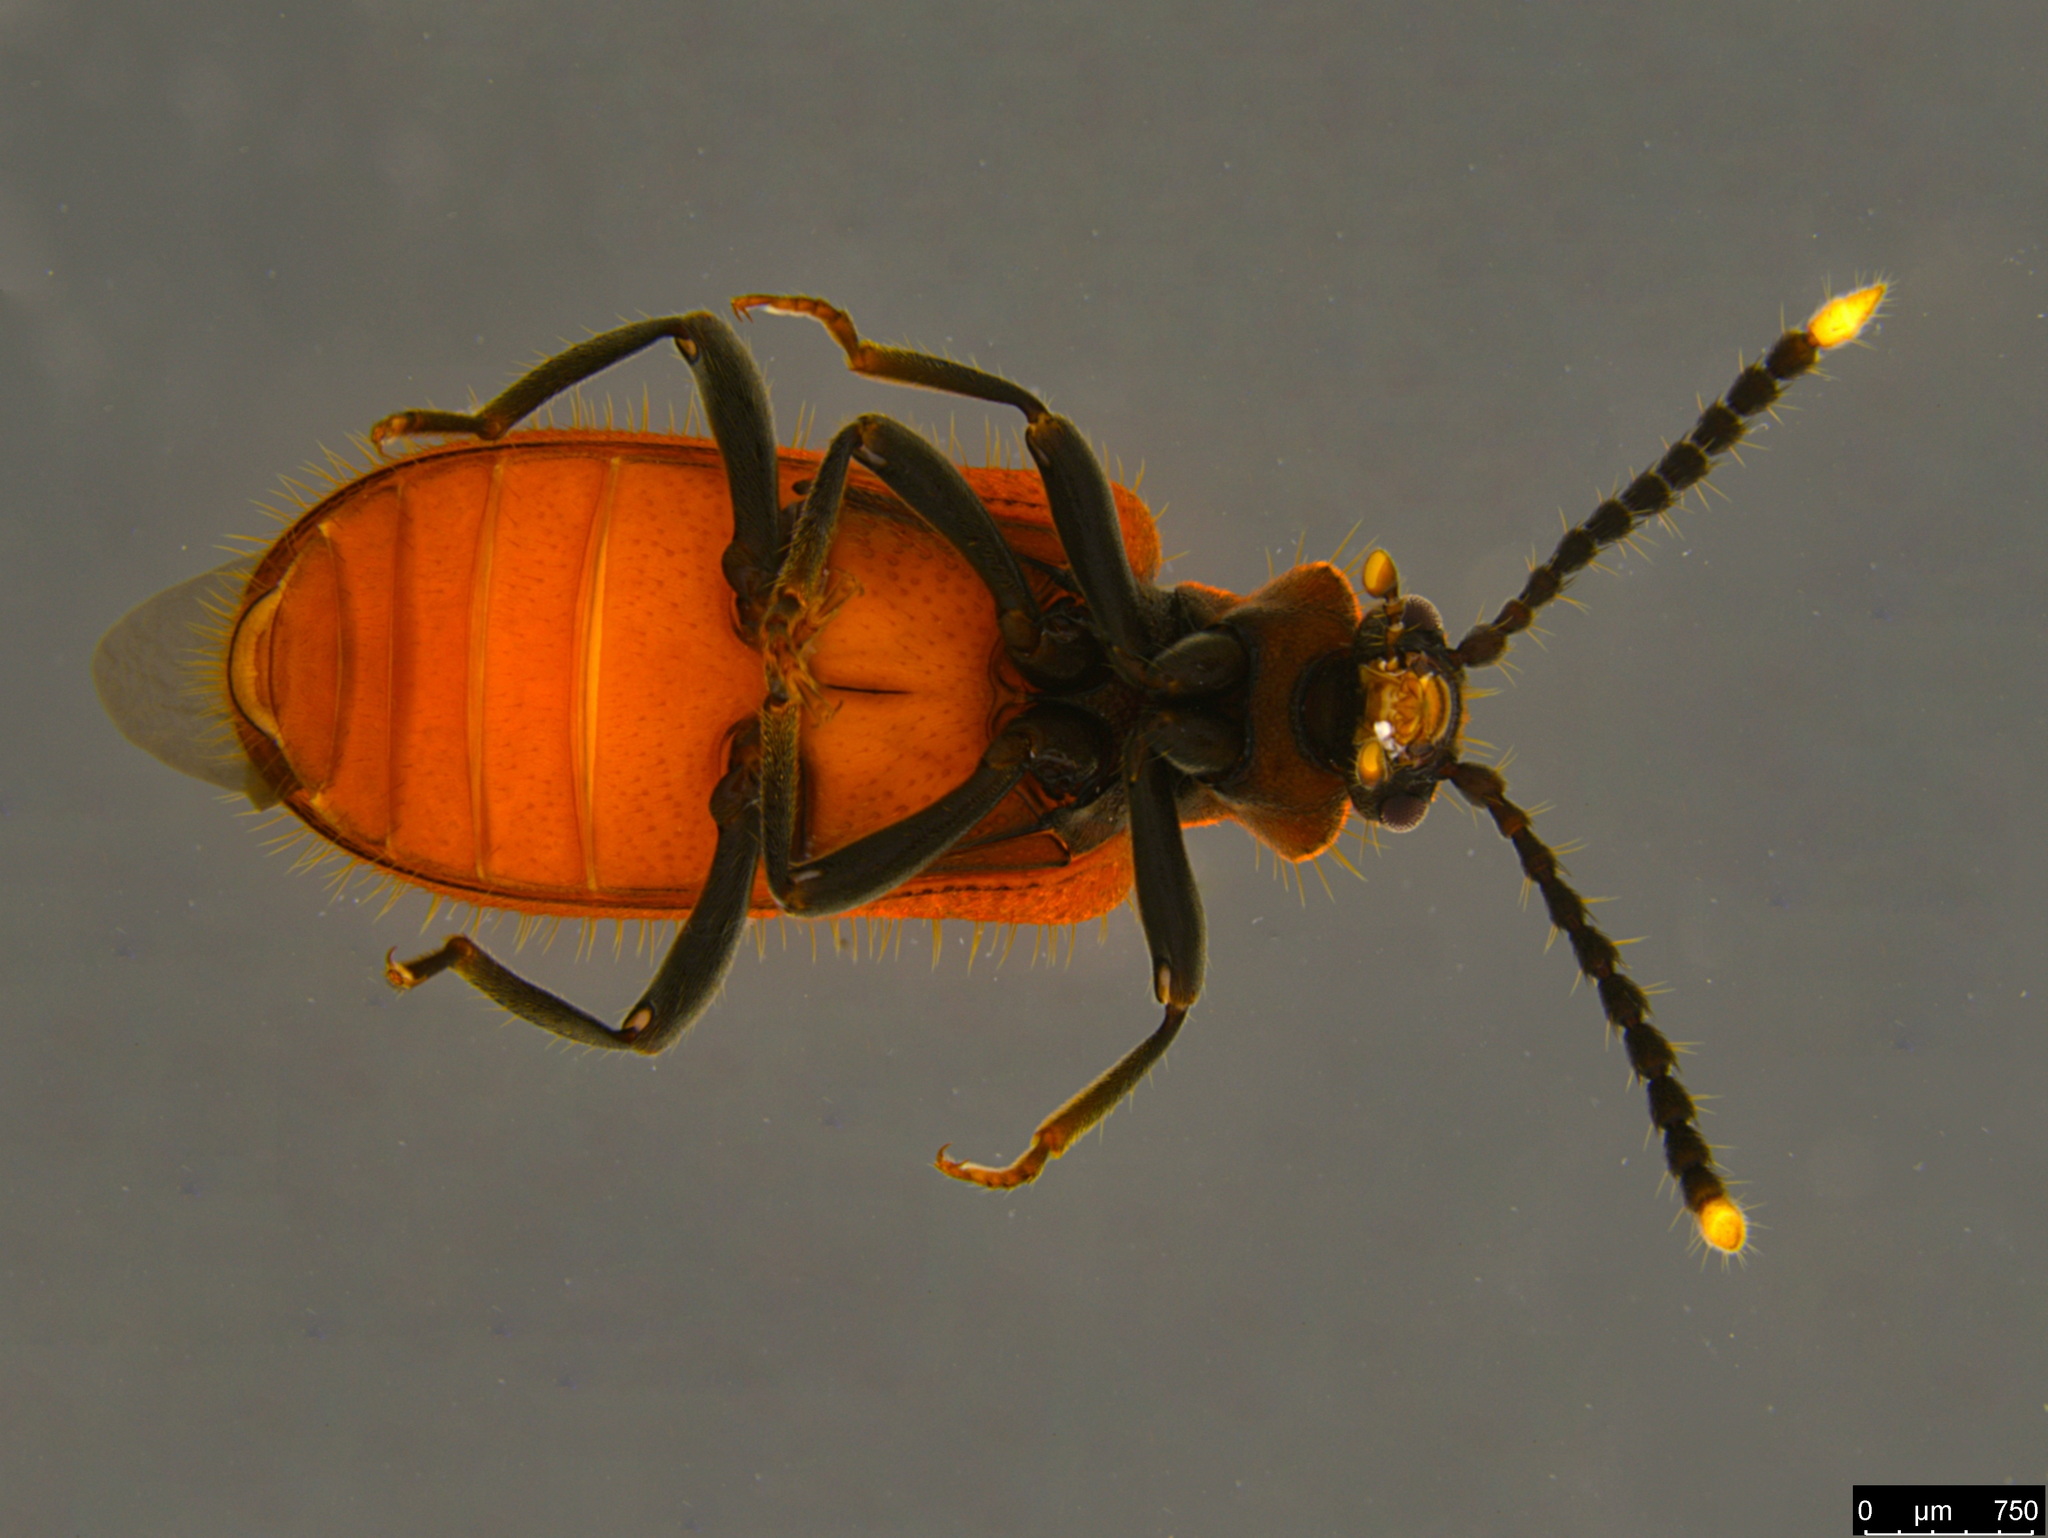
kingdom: Animalia
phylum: Arthropoda
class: Insecta
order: Coleoptera
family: Anthicidae
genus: Lemodes
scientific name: Lemodes
